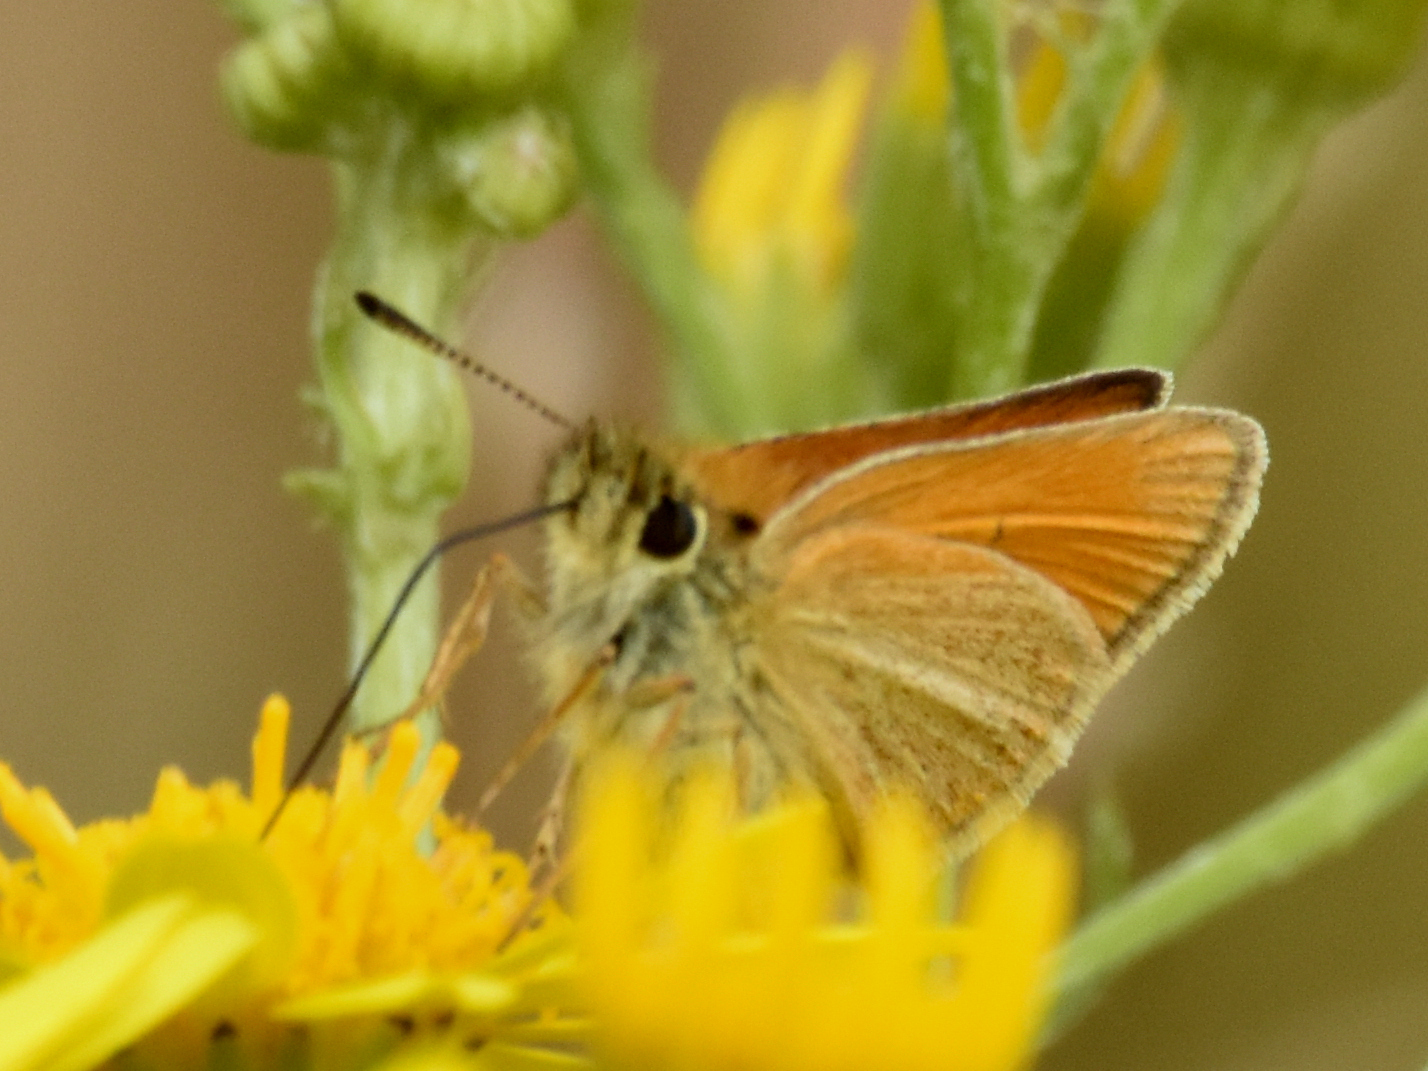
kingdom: Animalia
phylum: Arthropoda
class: Insecta
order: Lepidoptera
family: Hesperiidae
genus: Thymelicus
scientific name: Thymelicus lineola
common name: Essex skipper
